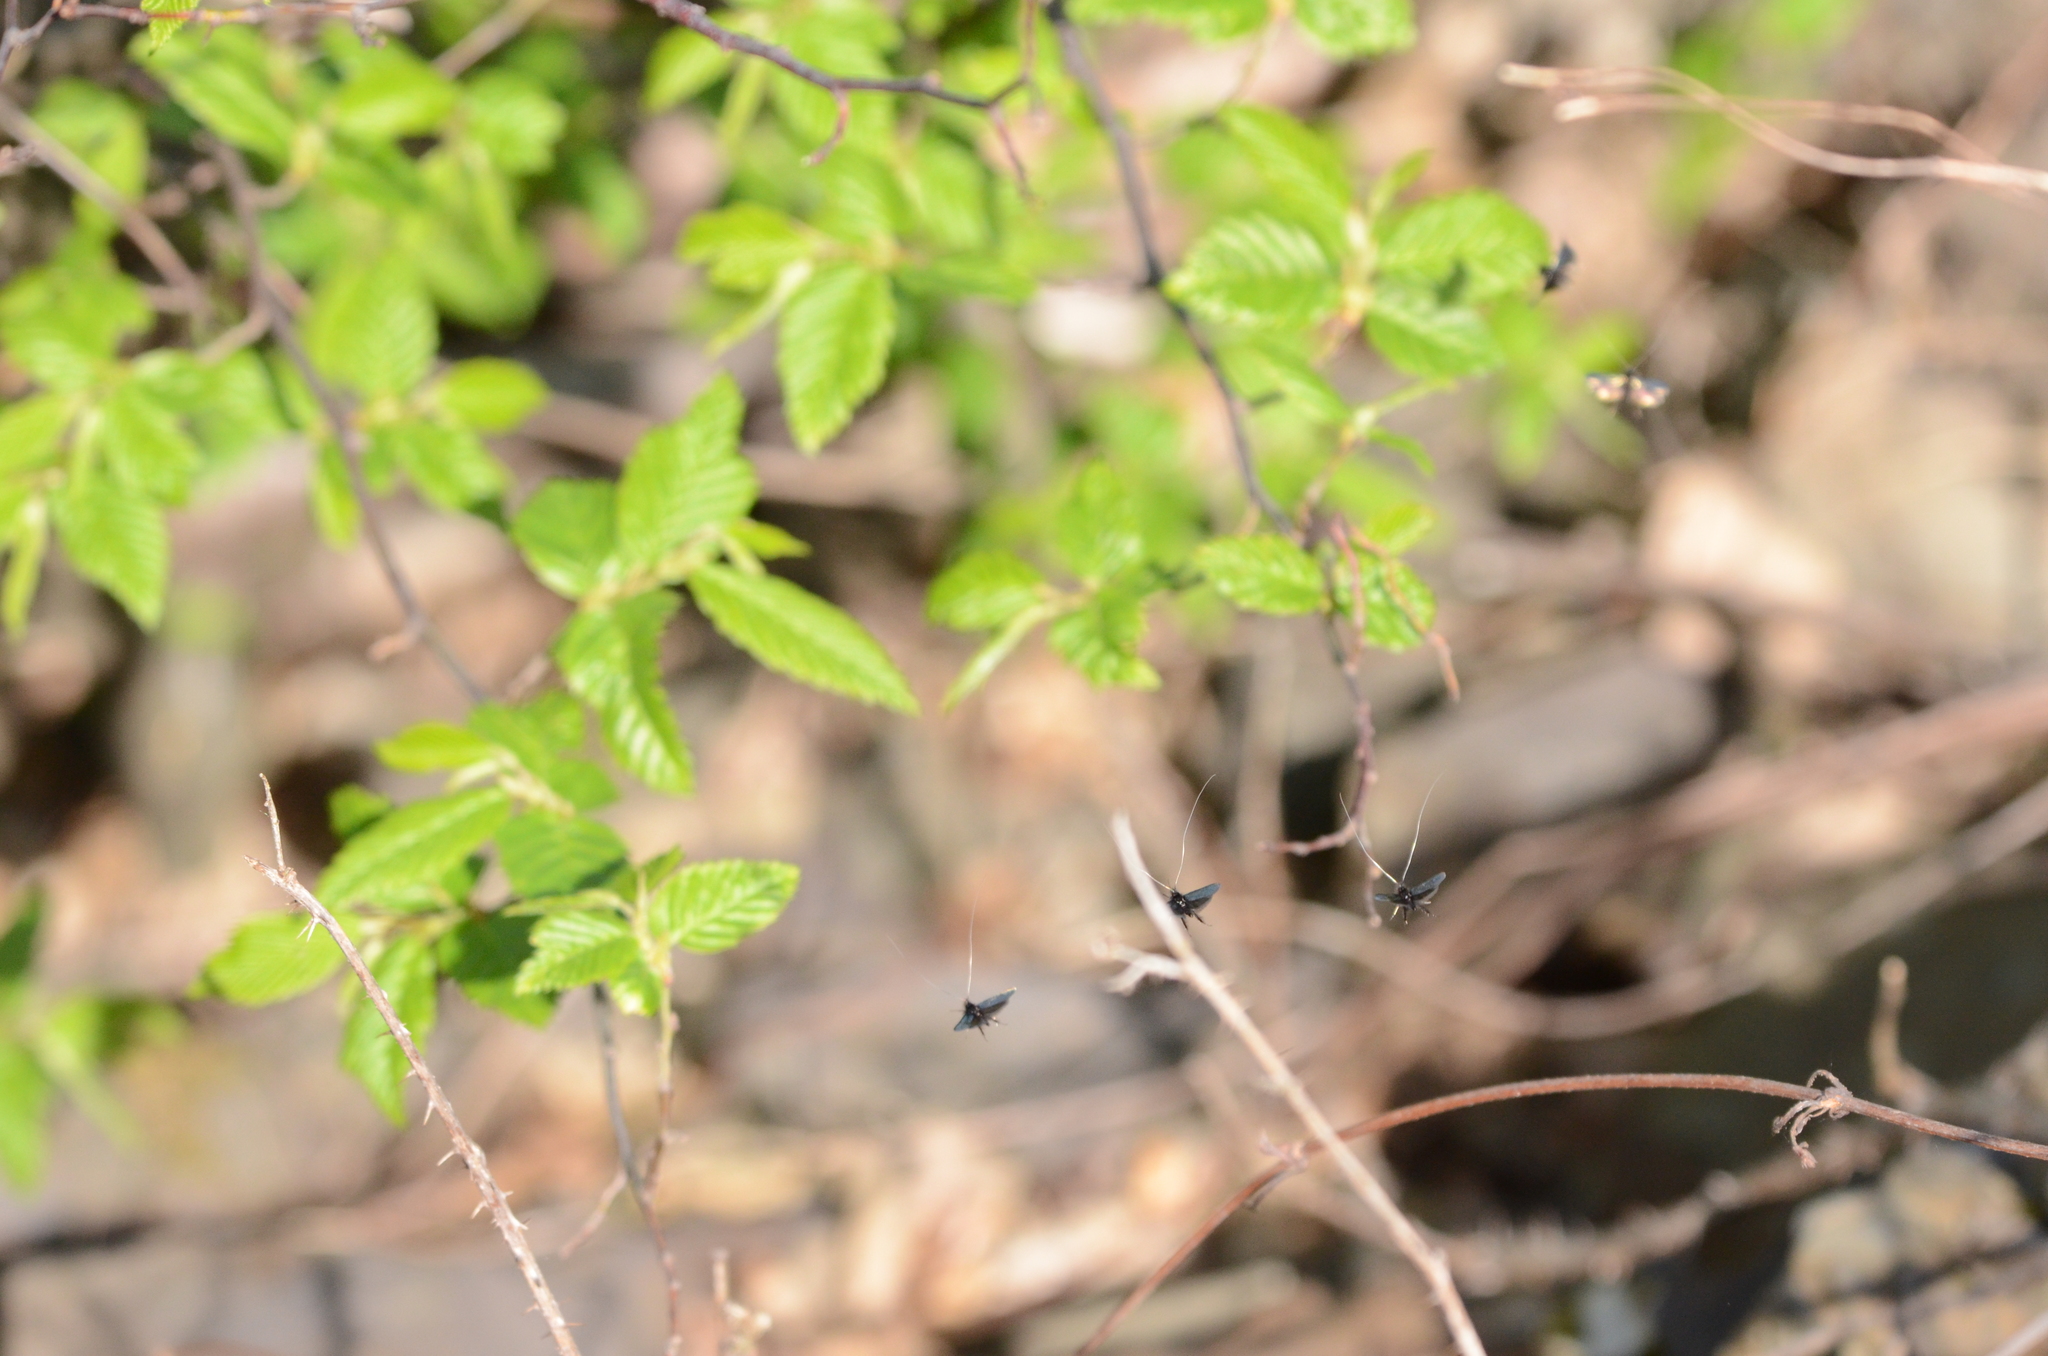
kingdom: Animalia
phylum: Arthropoda
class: Insecta
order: Lepidoptera
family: Adelidae
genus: Adela
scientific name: Adela viridella
